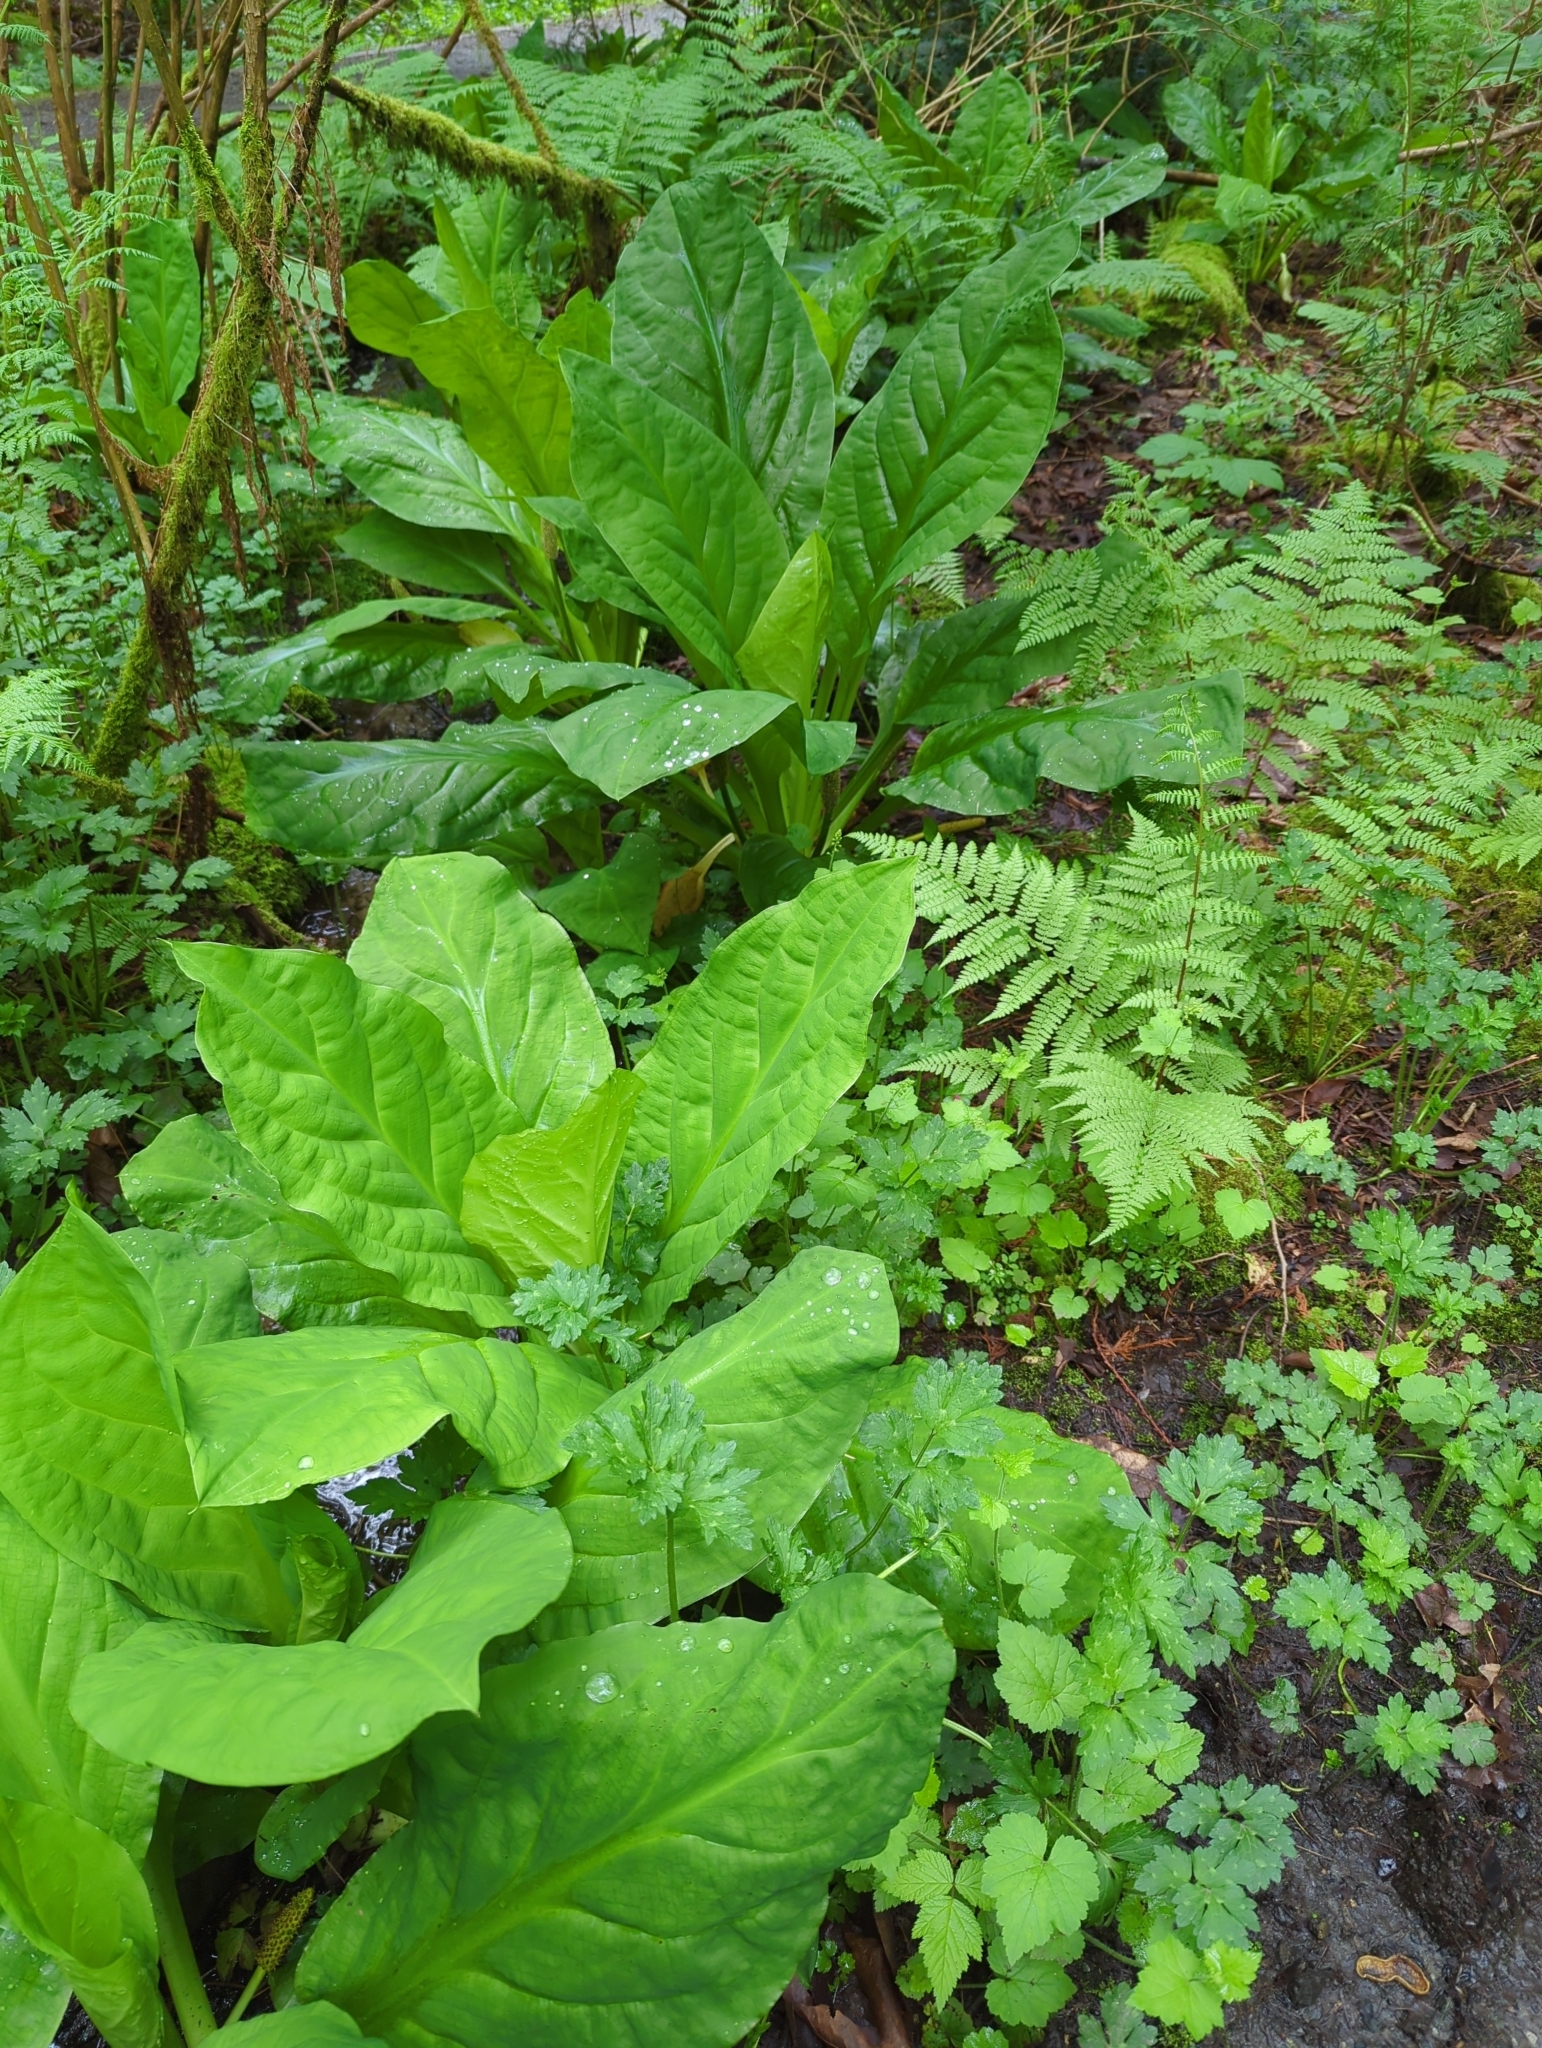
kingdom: Plantae
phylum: Tracheophyta
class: Liliopsida
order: Alismatales
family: Araceae
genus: Lysichiton
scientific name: Lysichiton americanus
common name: American skunk cabbage
